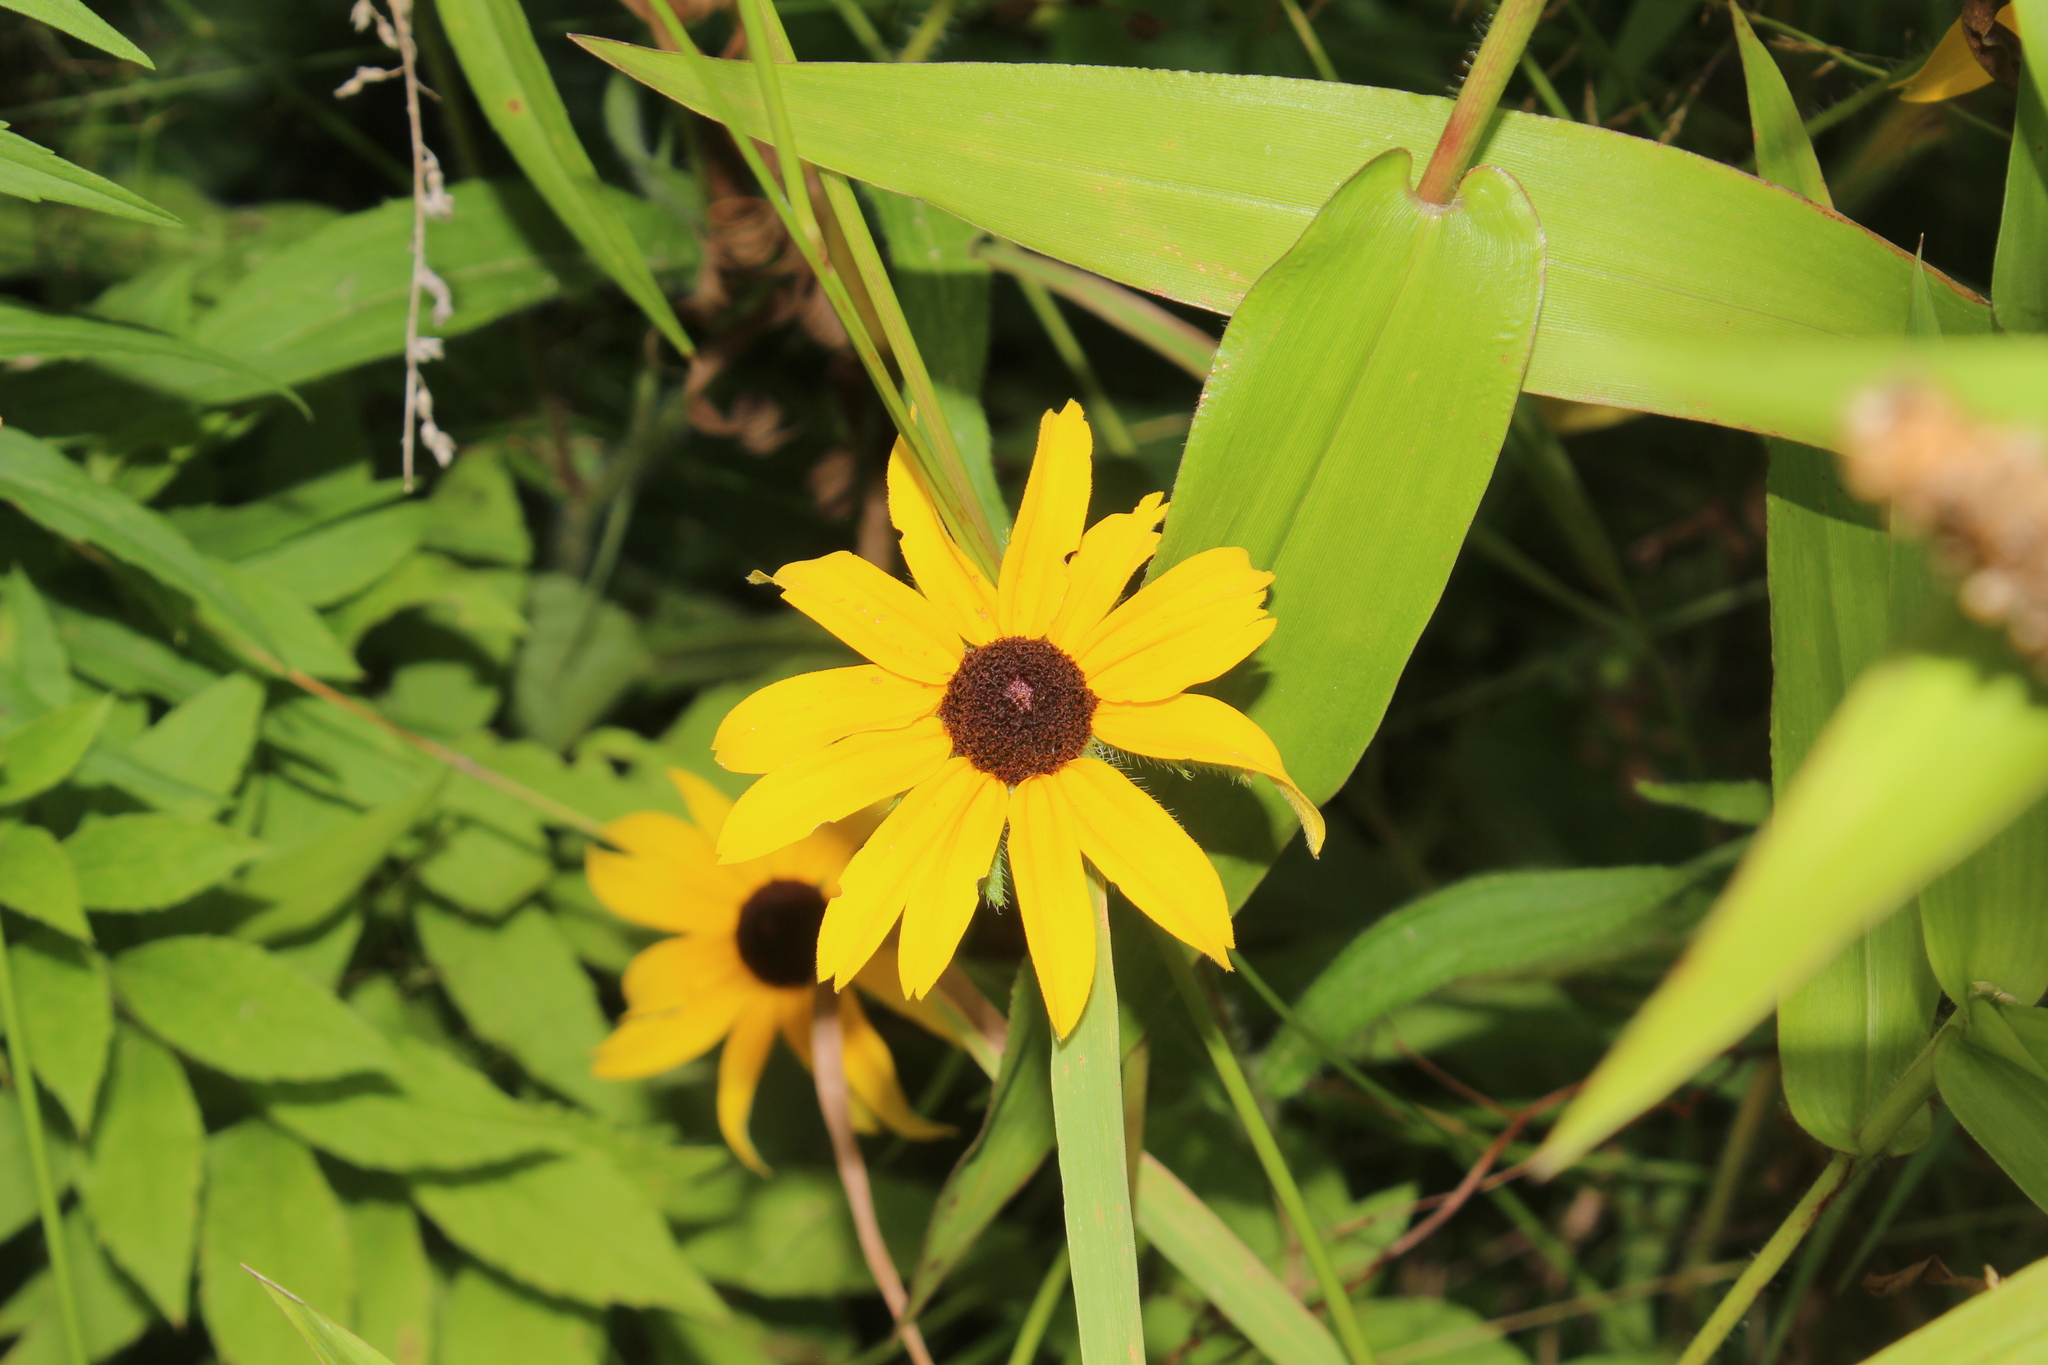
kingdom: Plantae
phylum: Tracheophyta
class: Magnoliopsida
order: Asterales
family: Asteraceae
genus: Rudbeckia
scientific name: Rudbeckia hirta
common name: Black-eyed-susan
